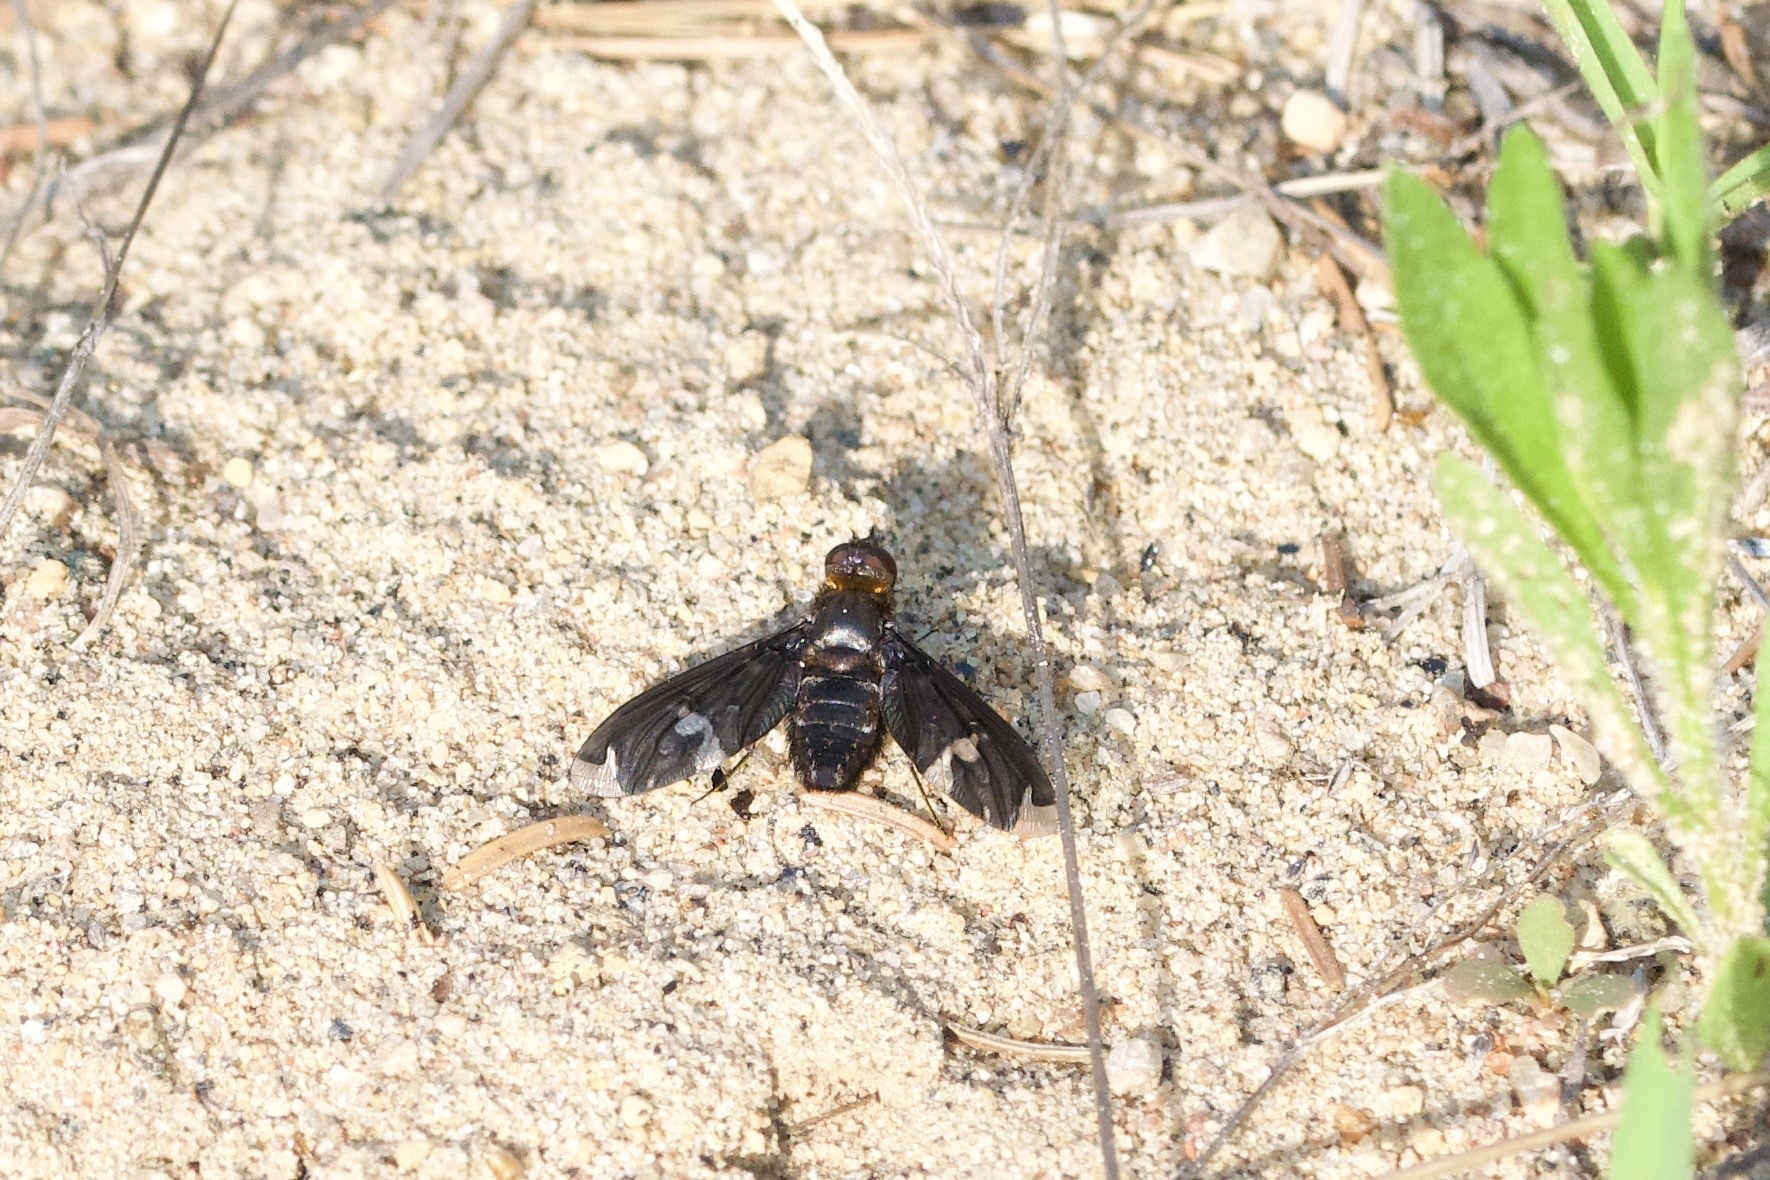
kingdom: Animalia
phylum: Arthropoda
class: Insecta
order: Diptera
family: Bombyliidae
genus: Exoprosopa
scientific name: Exoprosopa decora
